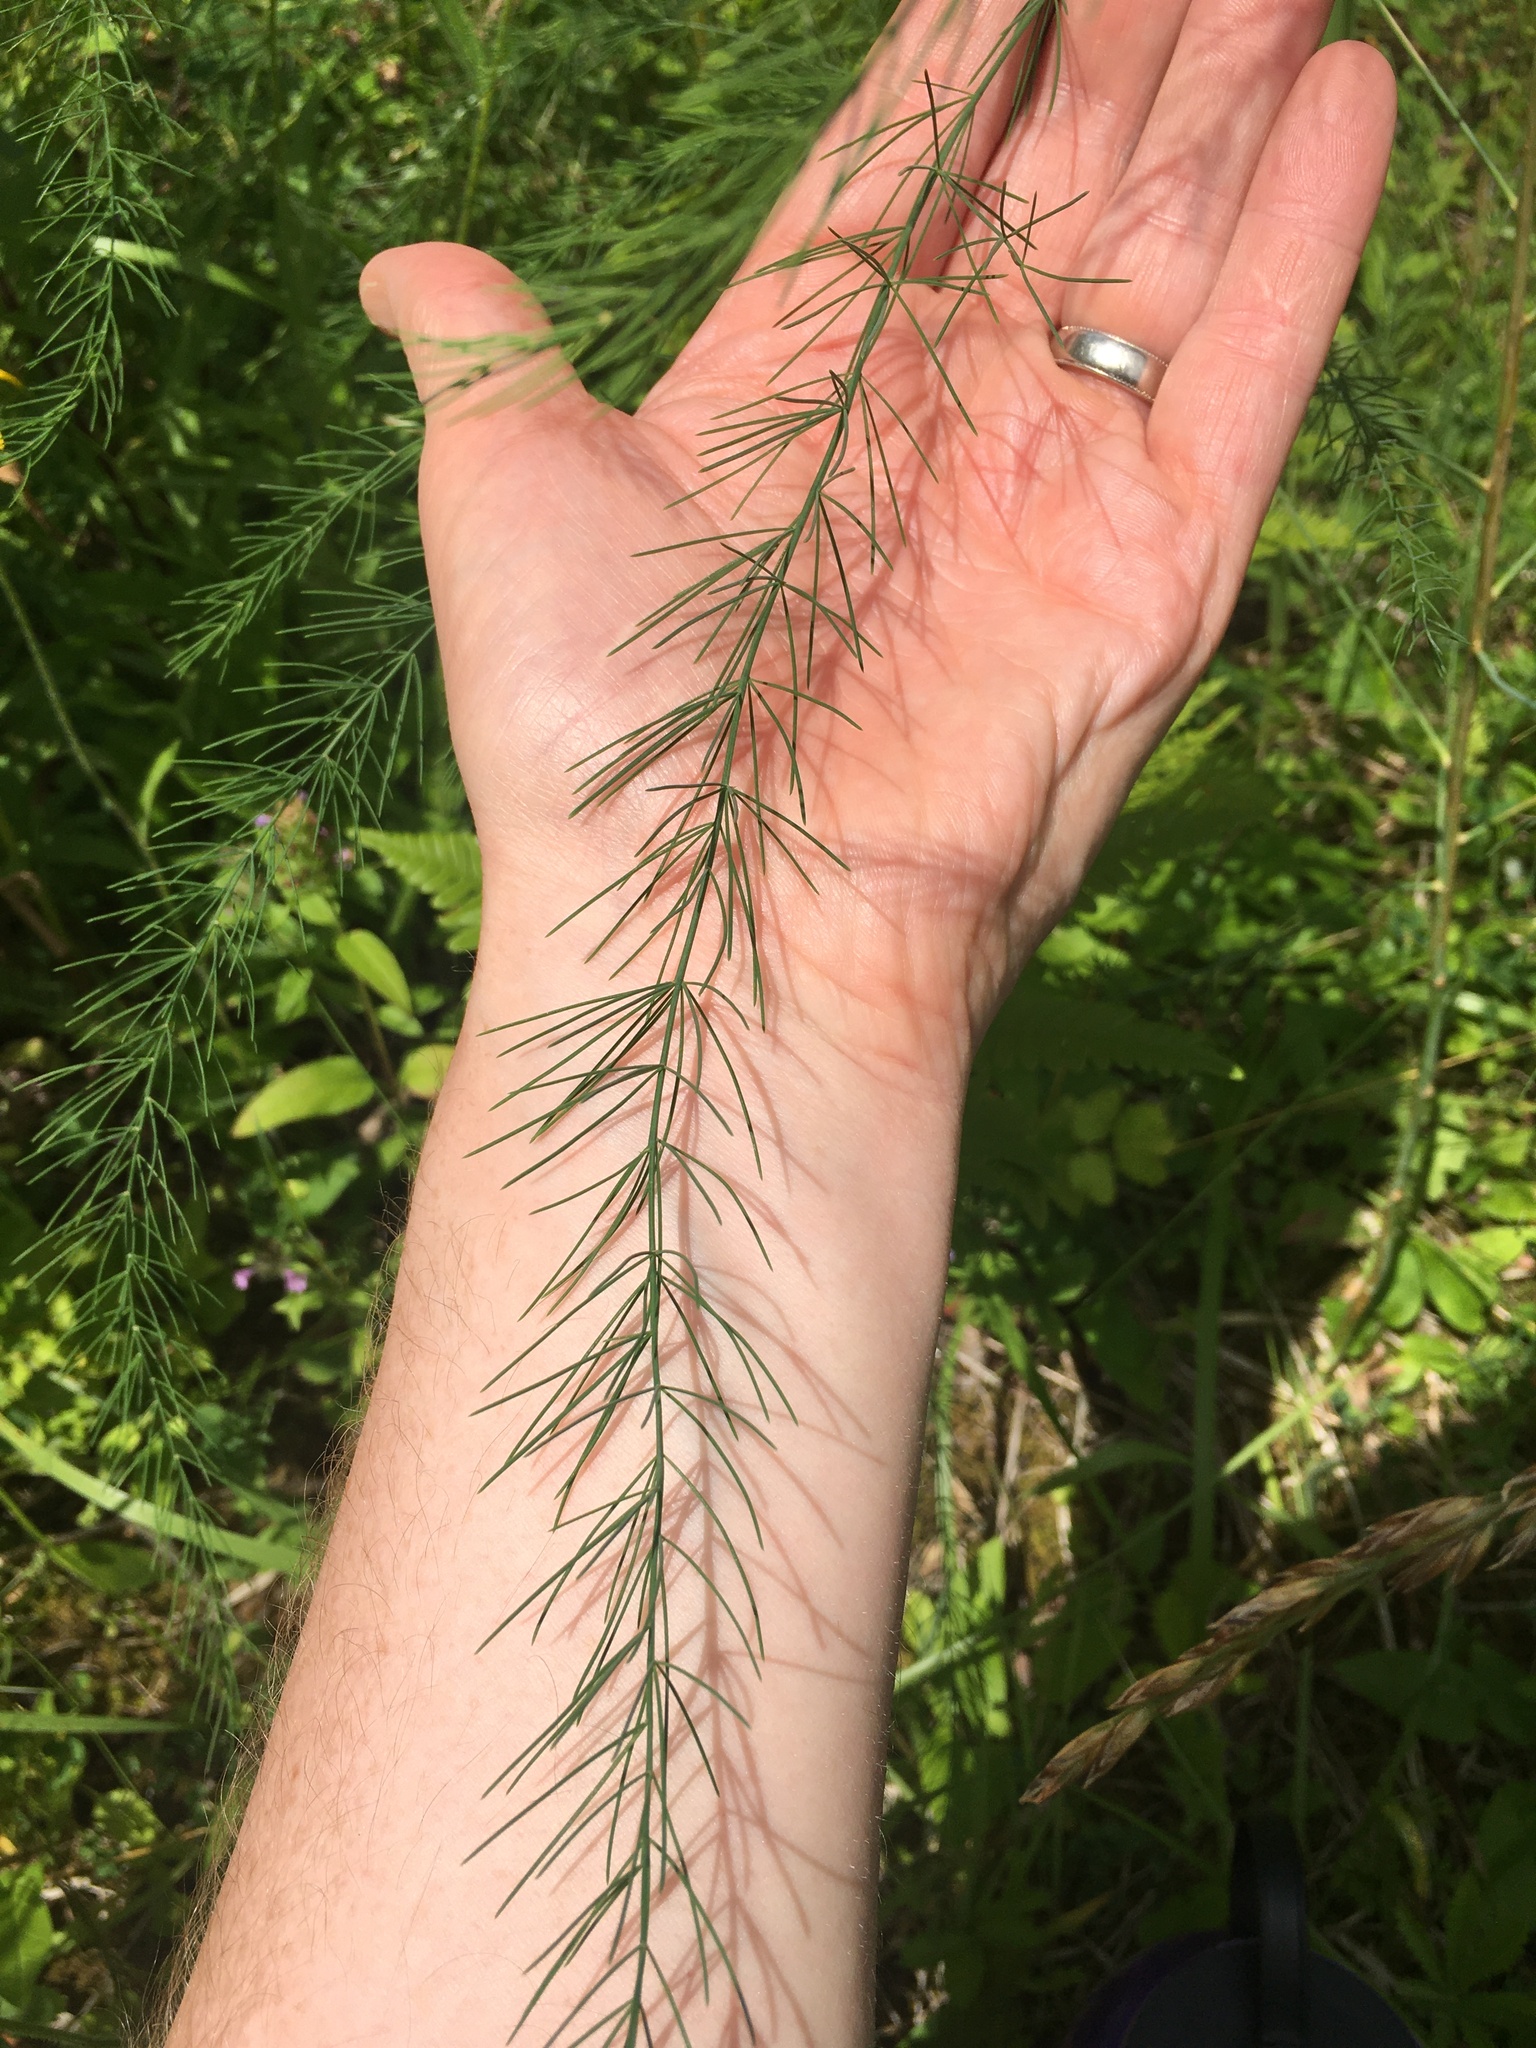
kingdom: Plantae
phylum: Tracheophyta
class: Liliopsida
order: Asparagales
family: Asparagaceae
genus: Asparagus
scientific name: Asparagus officinalis
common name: Garden asparagus
